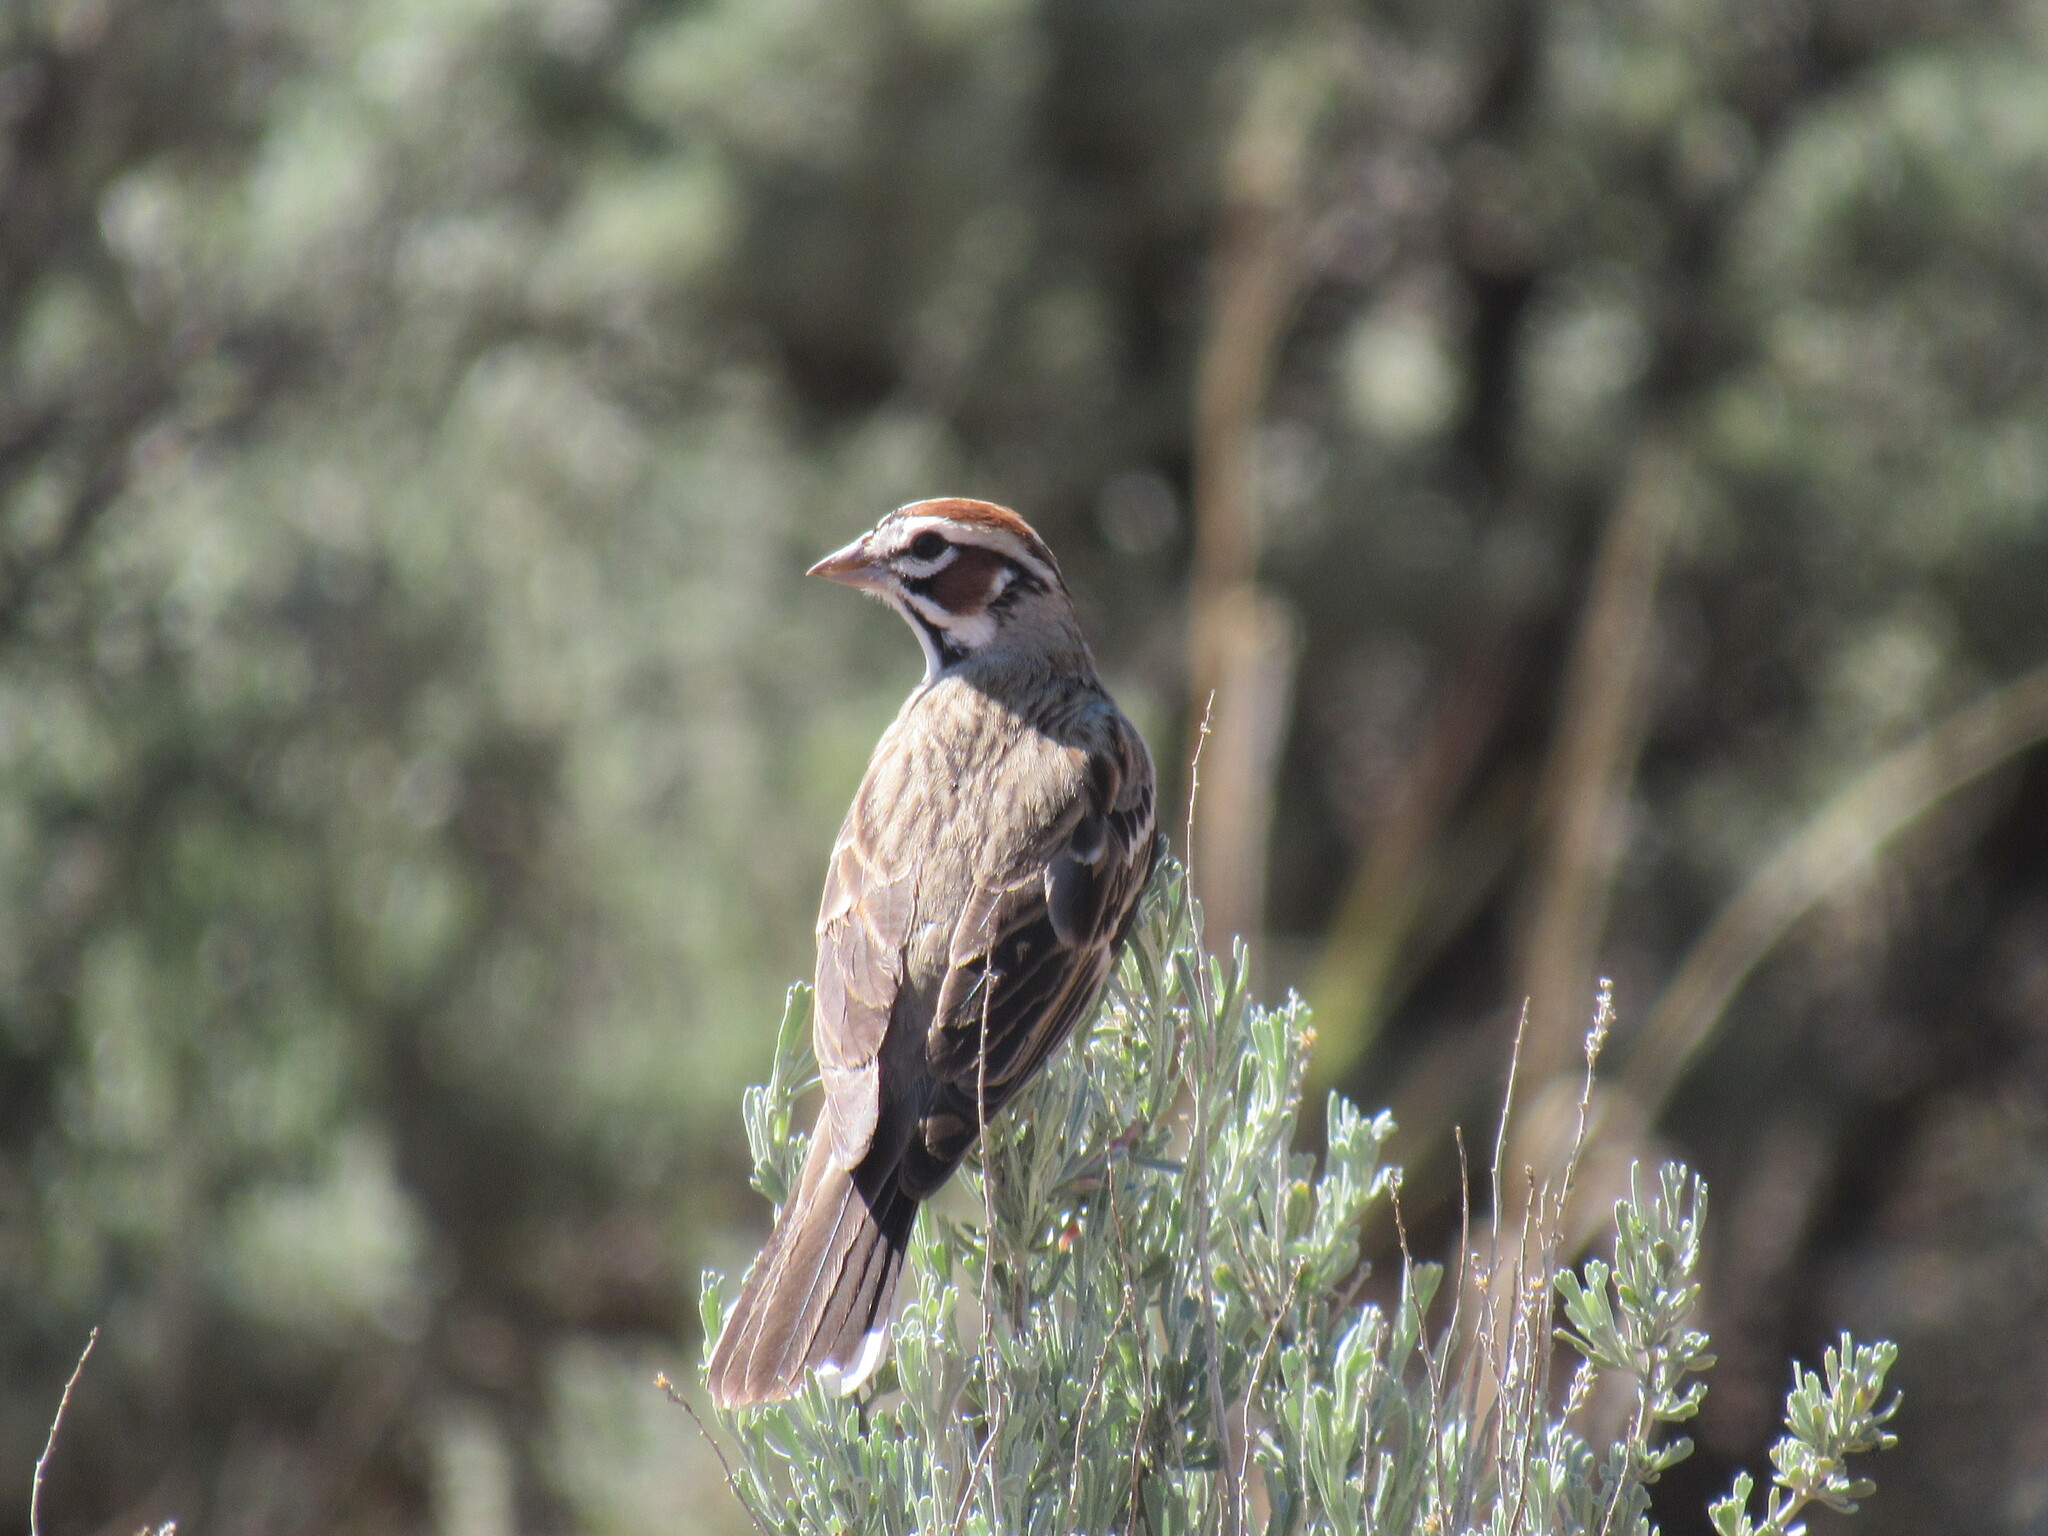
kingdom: Animalia
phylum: Chordata
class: Aves
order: Passeriformes
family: Passerellidae
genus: Chondestes
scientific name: Chondestes grammacus
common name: Lark sparrow
